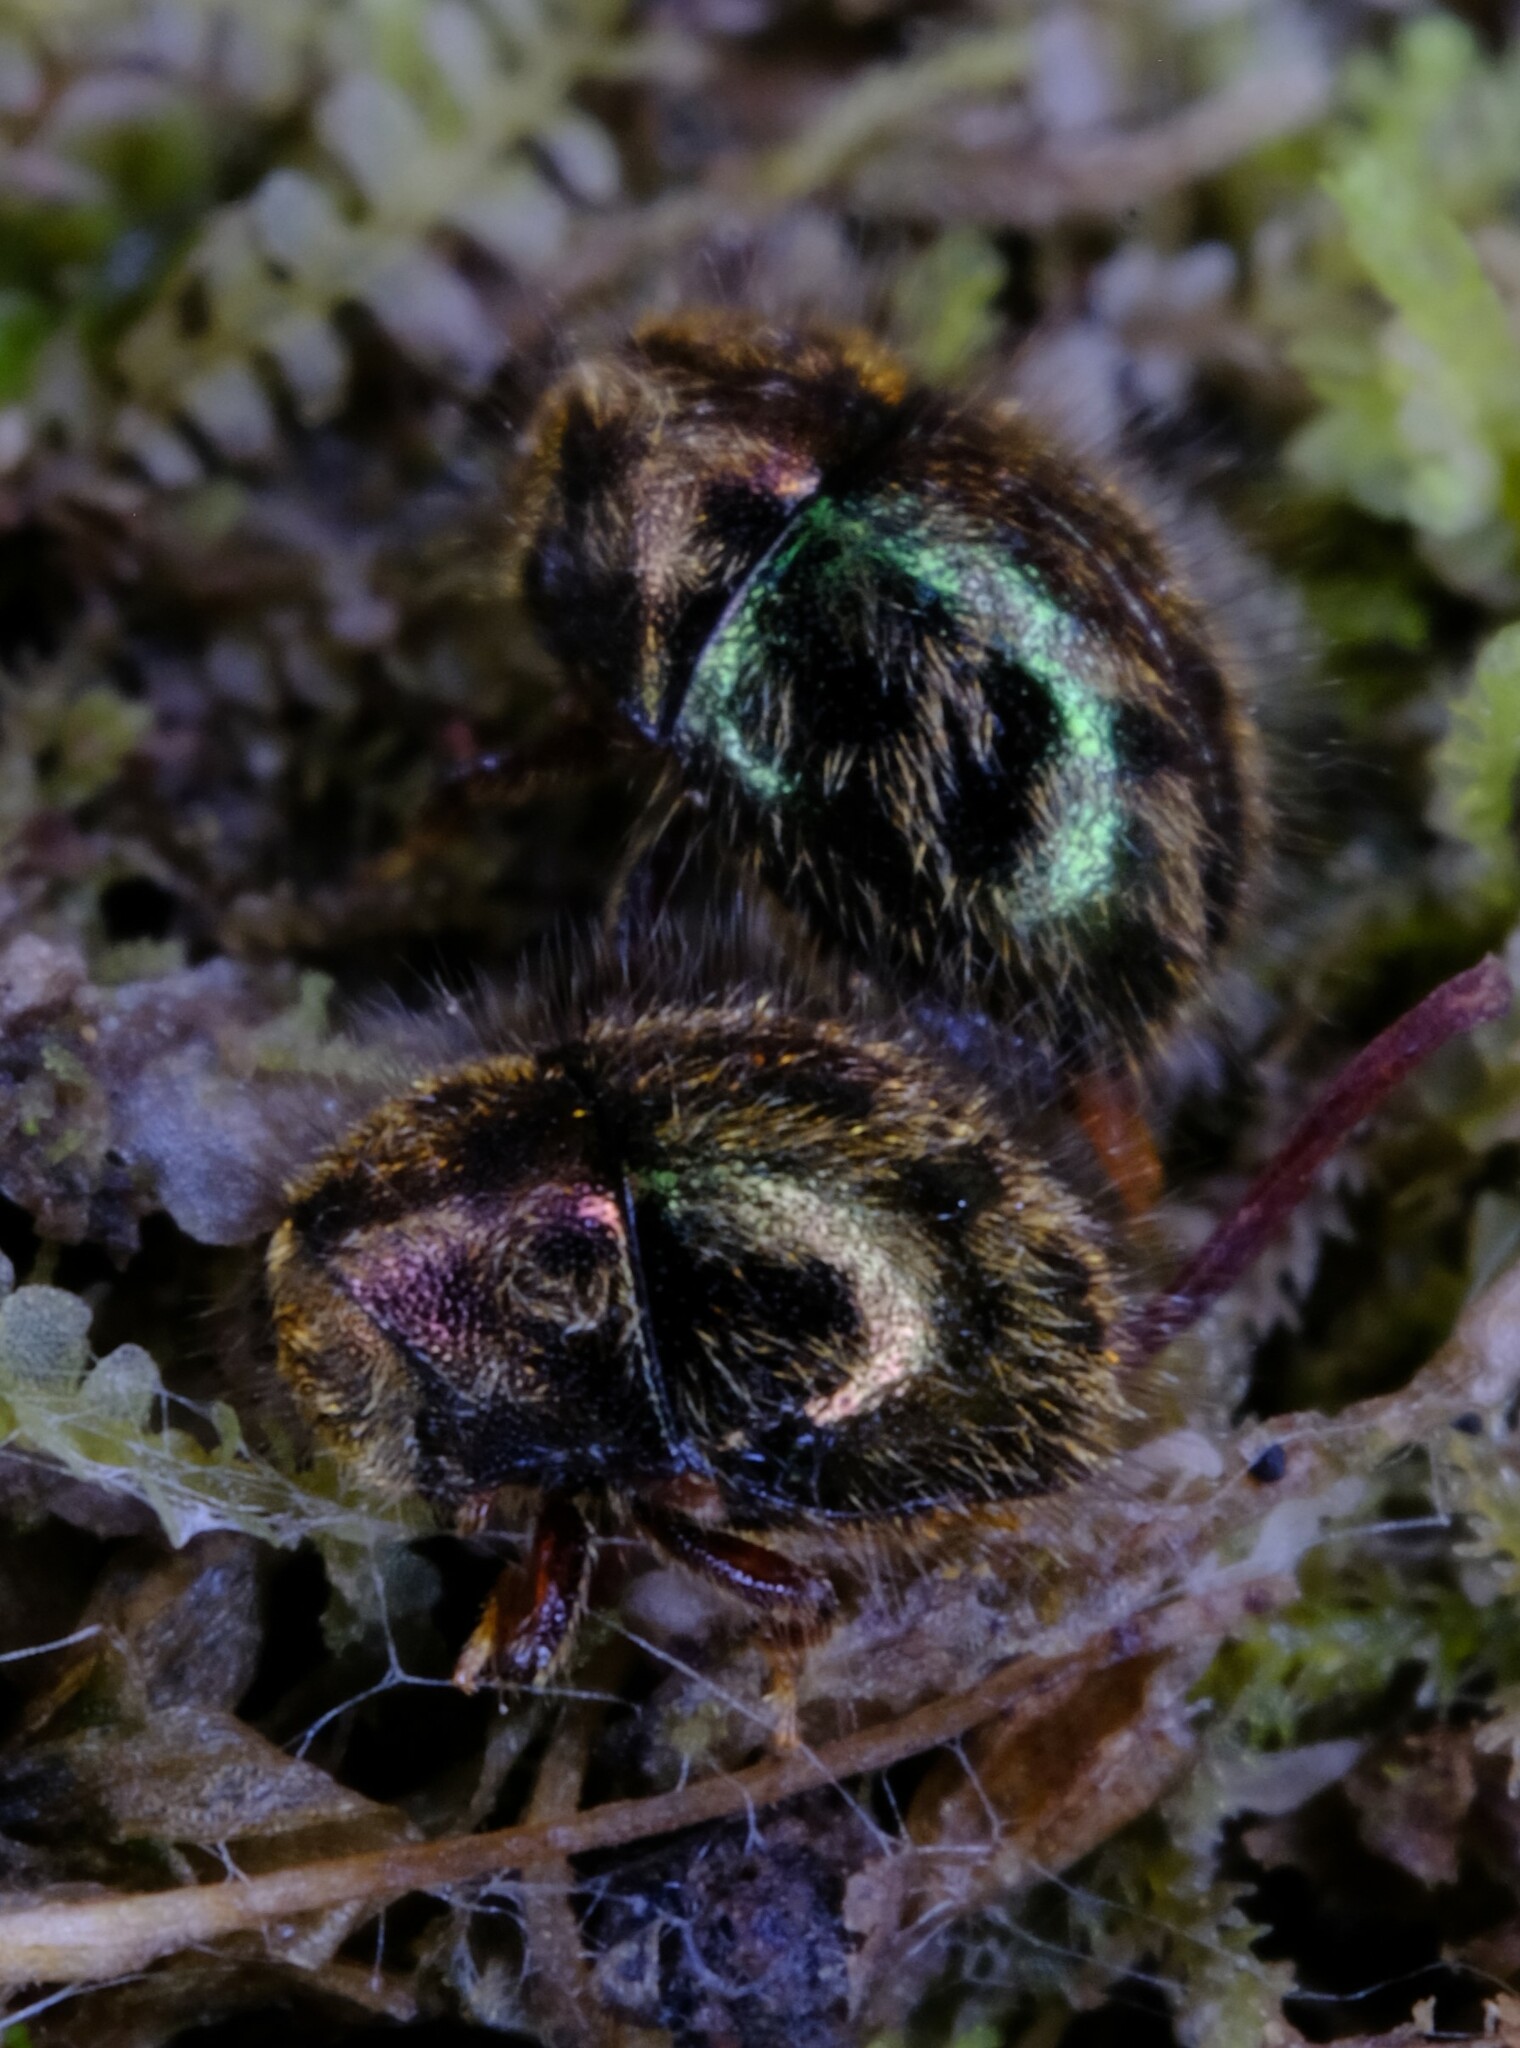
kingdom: Animalia
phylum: Arthropoda
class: Insecta
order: Coleoptera
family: Byrrhidae
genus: Akidomorychus
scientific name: Akidomorychus
